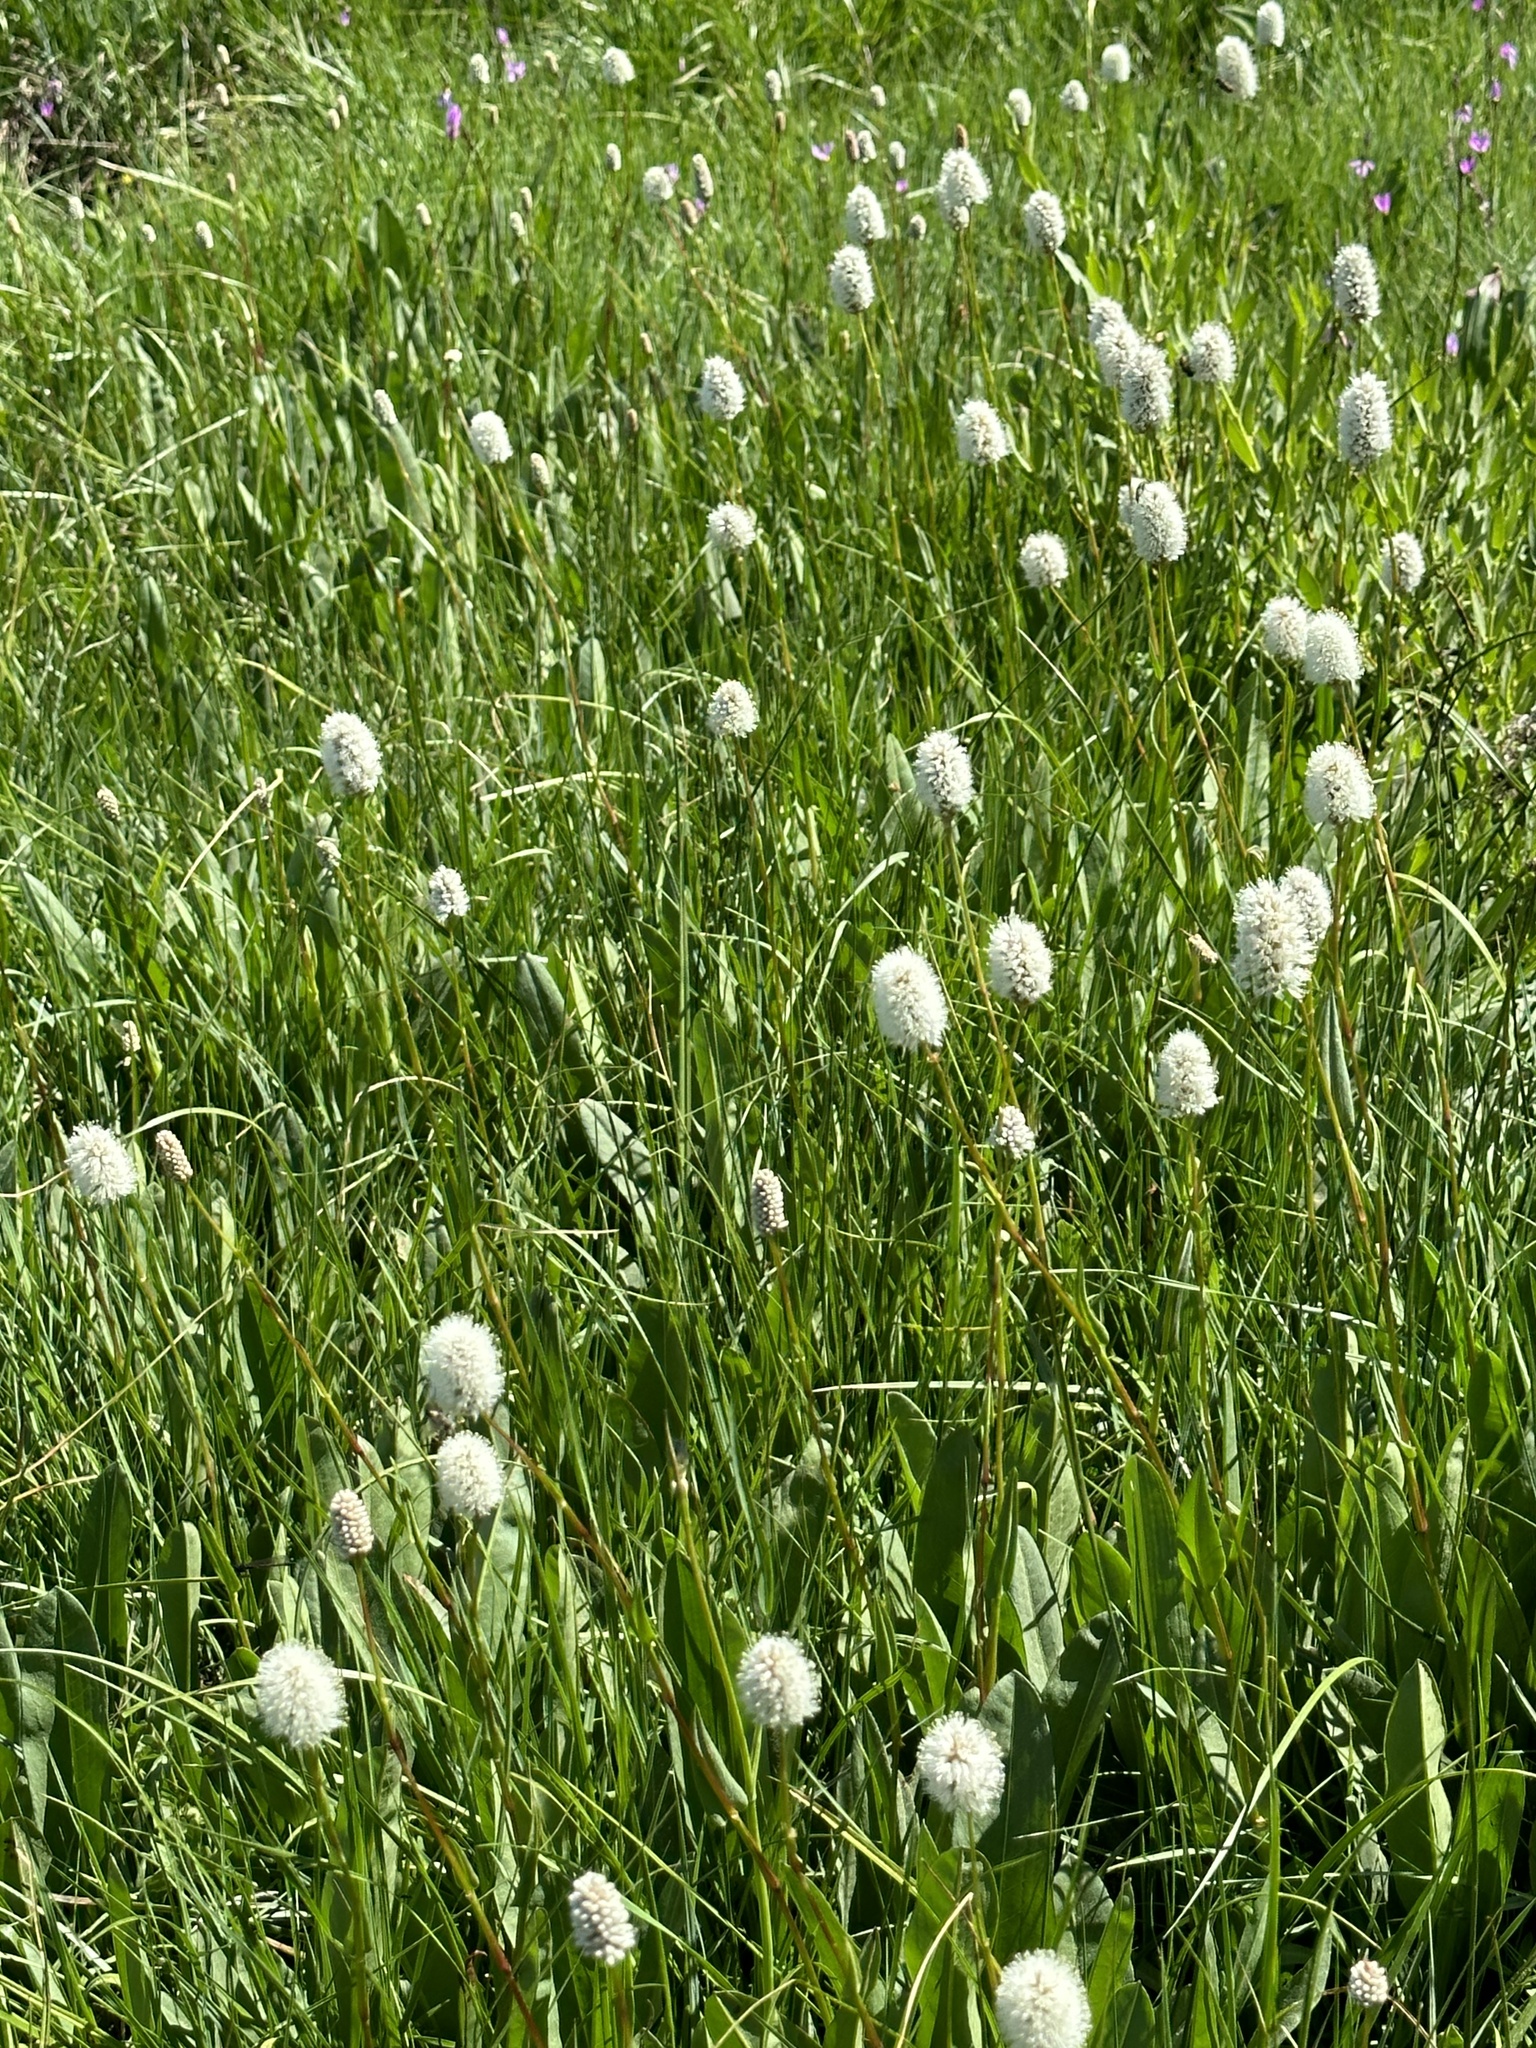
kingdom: Plantae
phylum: Tracheophyta
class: Magnoliopsida
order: Caryophyllales
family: Polygonaceae
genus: Bistorta
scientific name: Bistorta bistortoides
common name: American bistort
